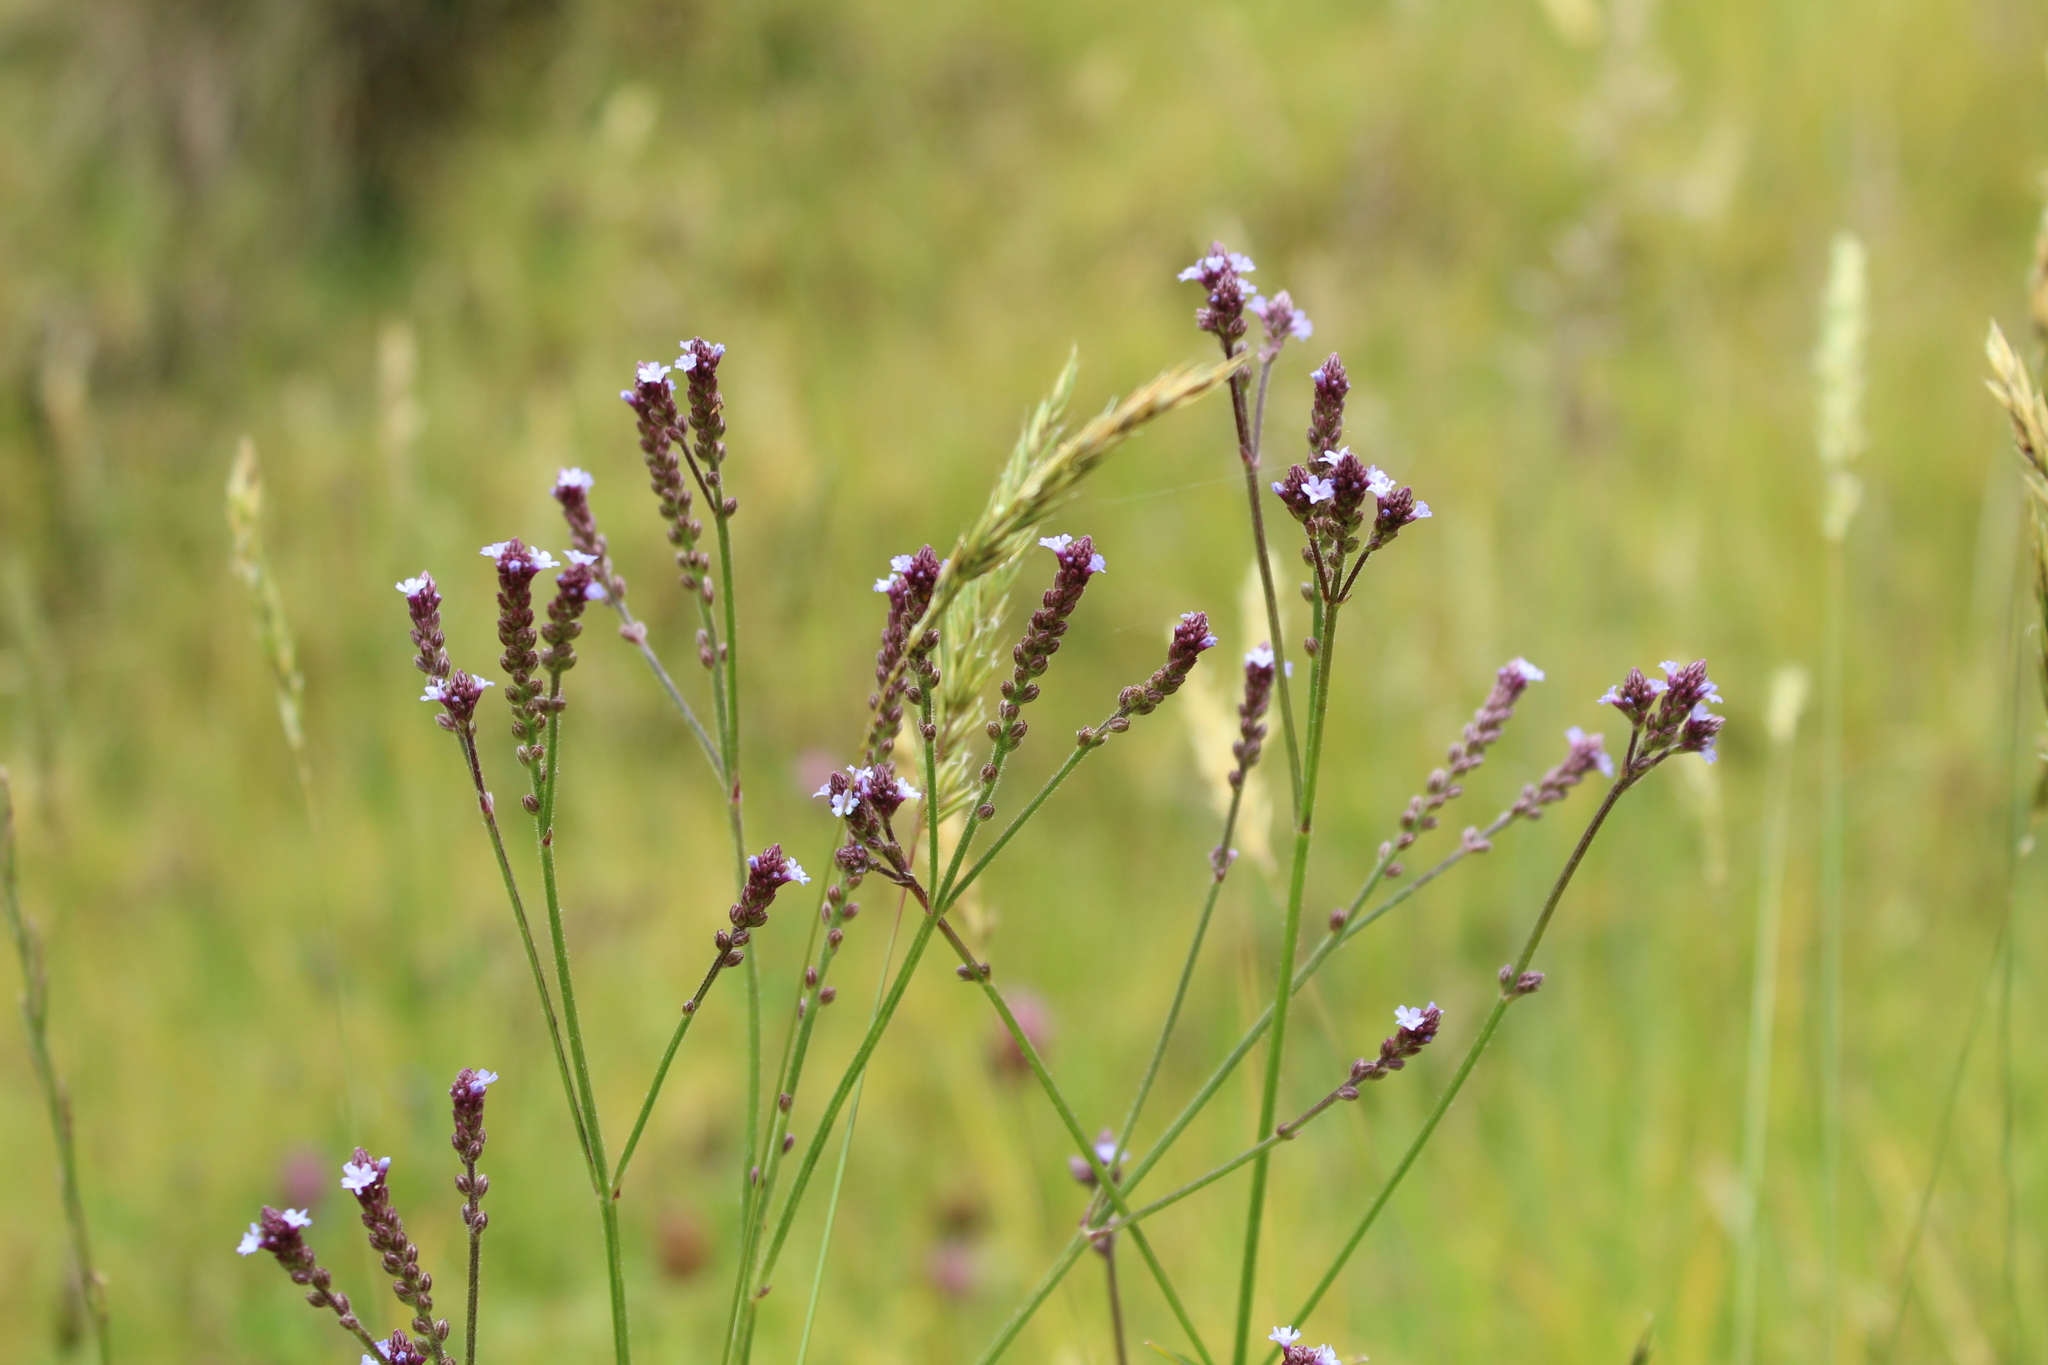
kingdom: Plantae
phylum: Tracheophyta
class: Magnoliopsida
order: Lamiales
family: Verbenaceae
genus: Verbena
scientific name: Verbena litoralis
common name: Seashore vervain
